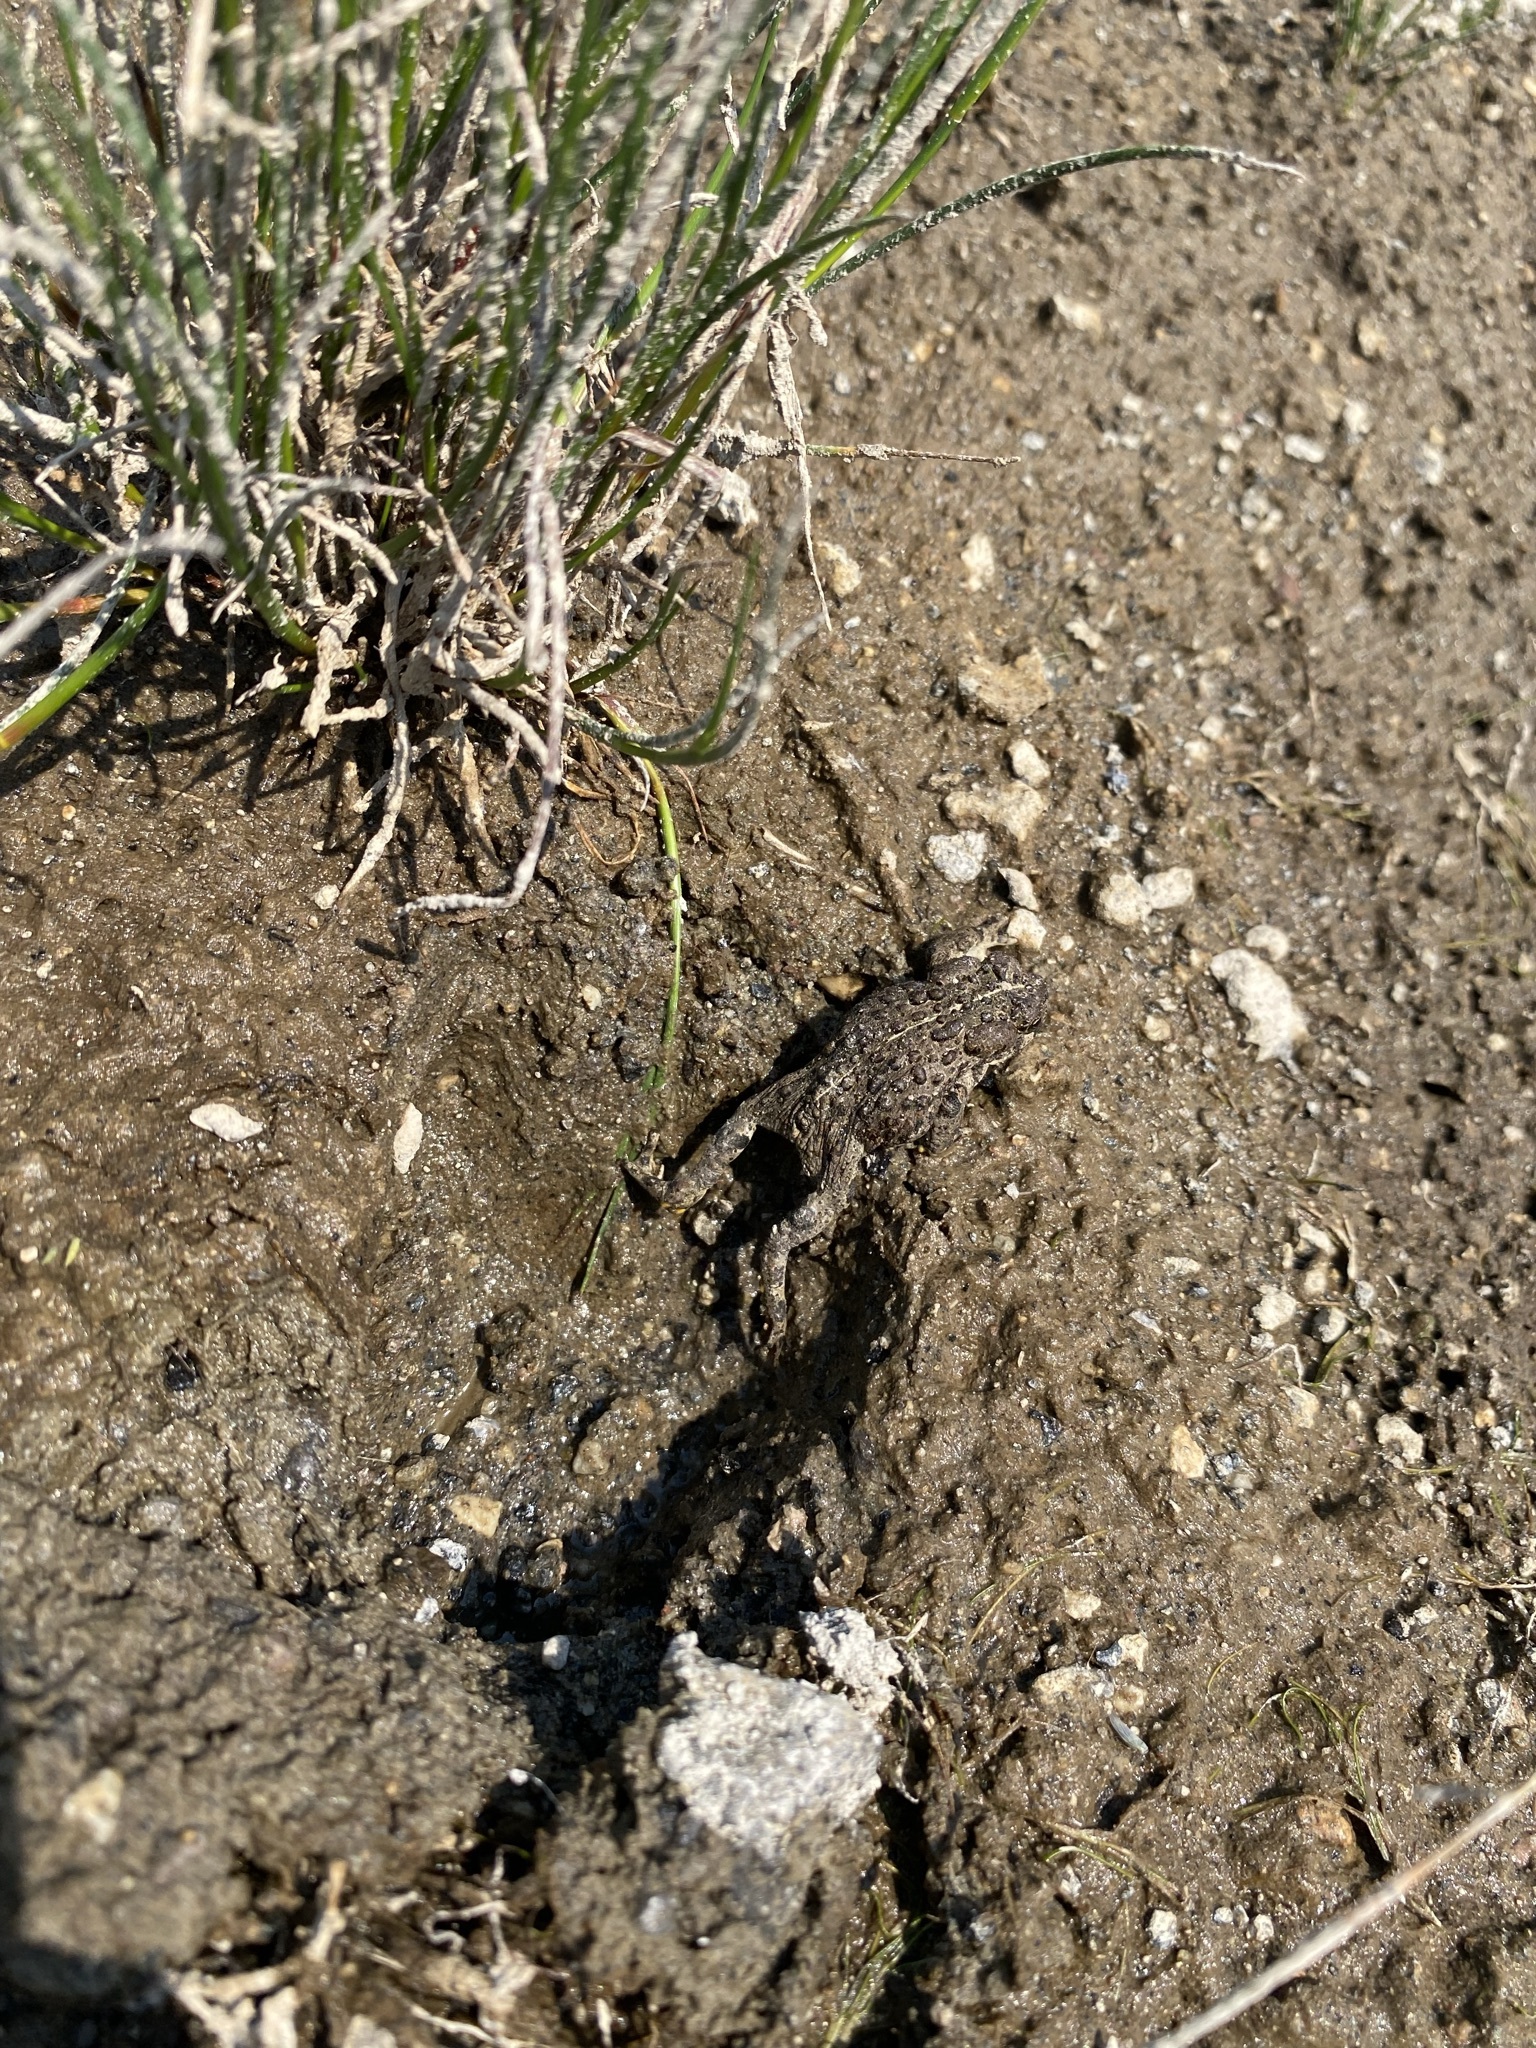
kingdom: Animalia
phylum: Chordata
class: Amphibia
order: Anura
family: Bufonidae
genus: Anaxyrus
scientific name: Anaxyrus boreas
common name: Western toad
